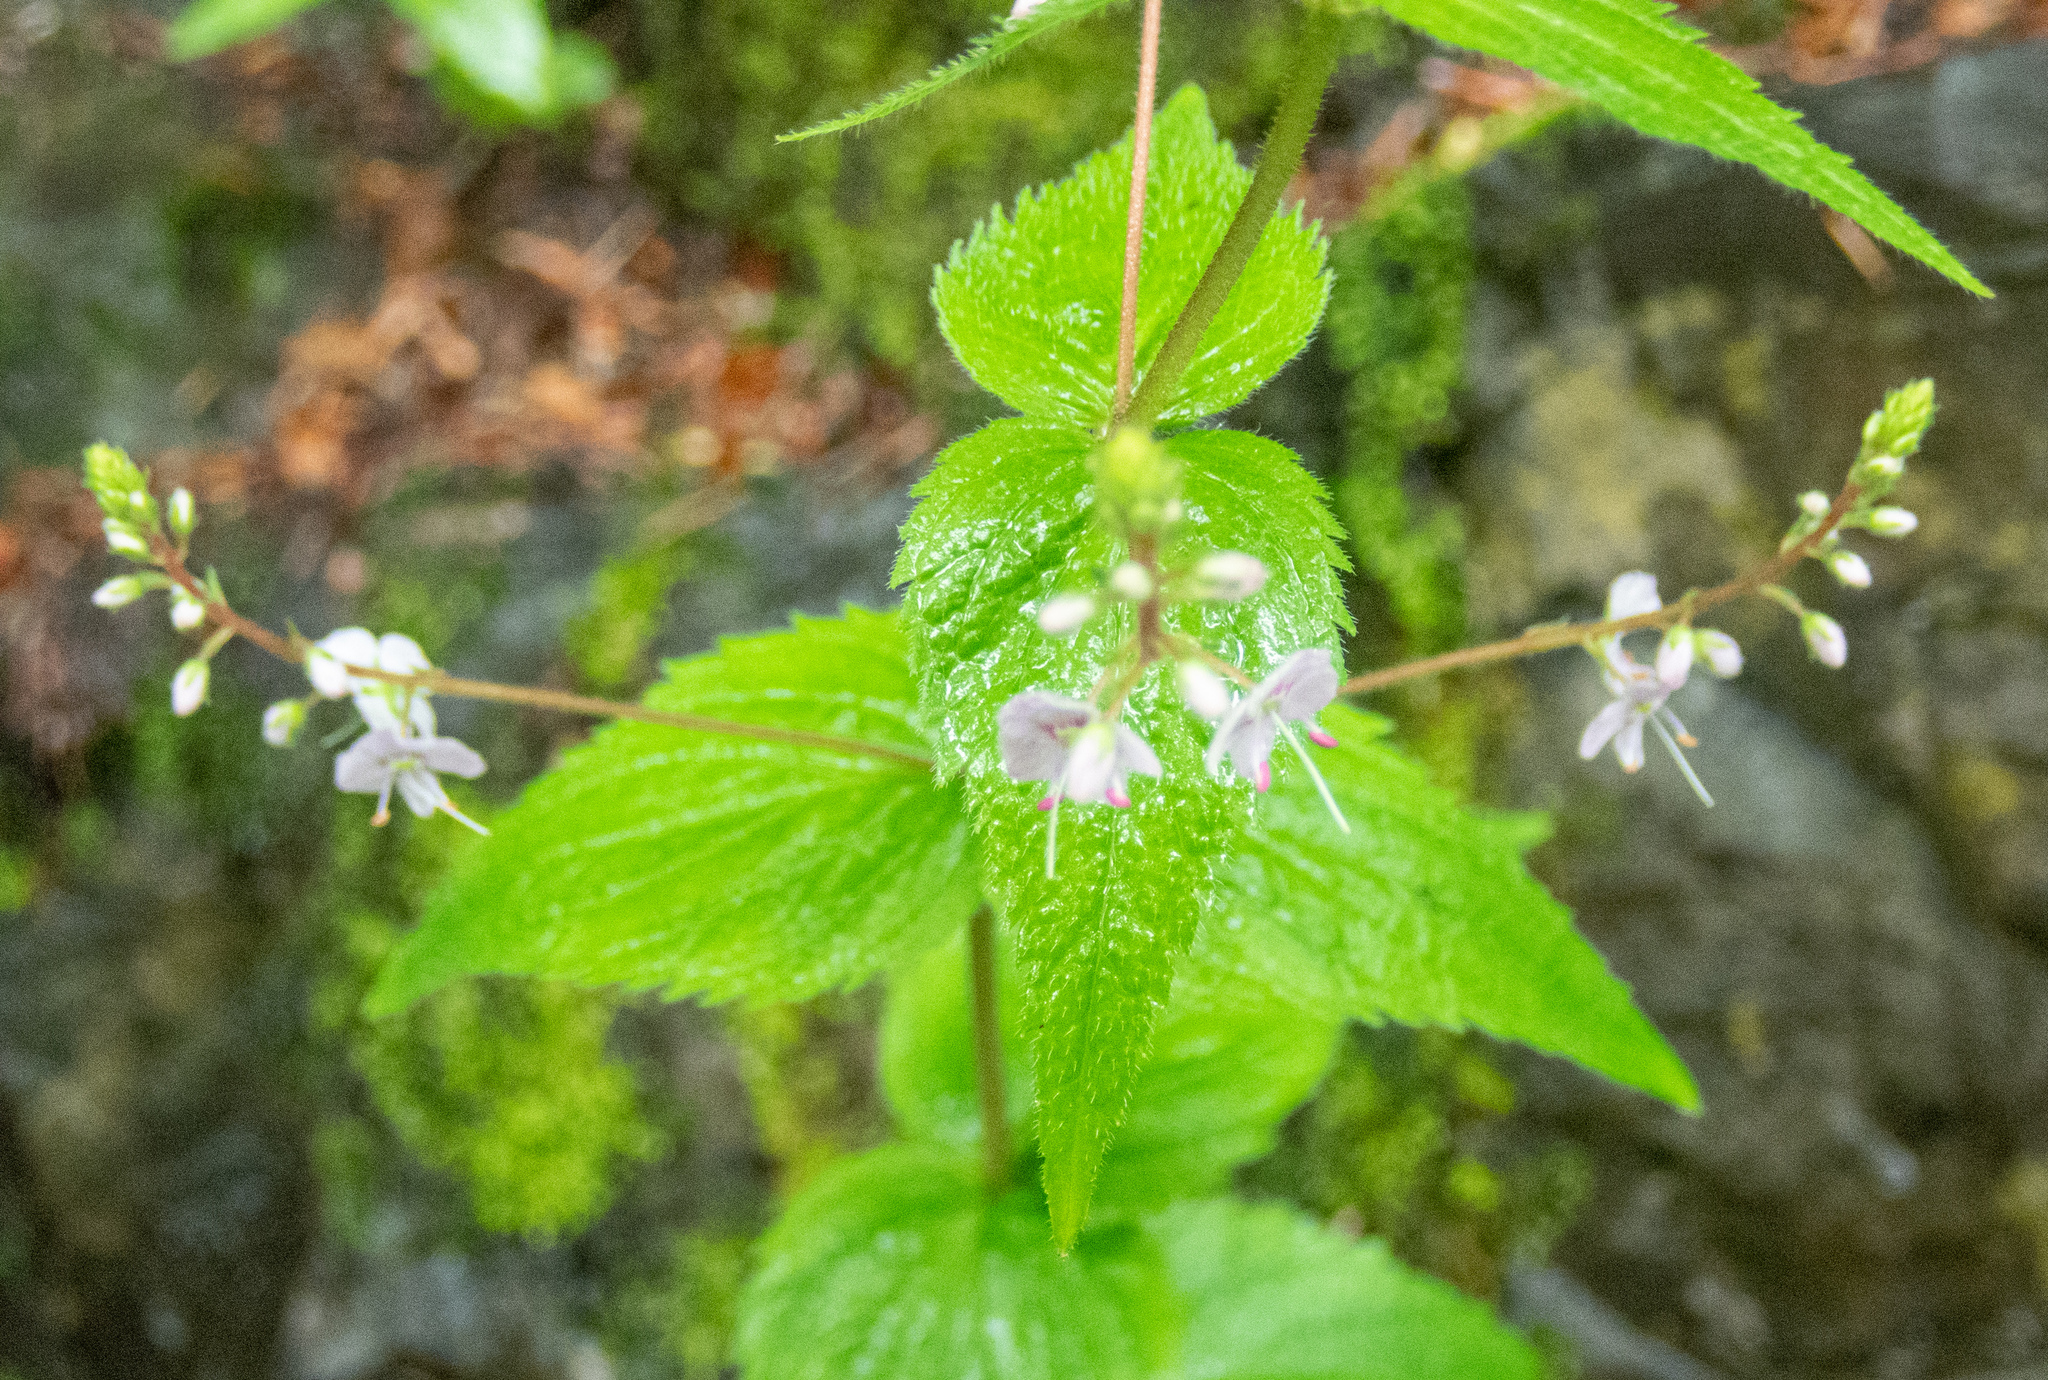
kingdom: Plantae
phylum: Tracheophyta
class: Magnoliopsida
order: Lamiales
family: Plantaginaceae
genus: Veronica
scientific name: Veronica urticifolia
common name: Nettle-leaf speedwell
